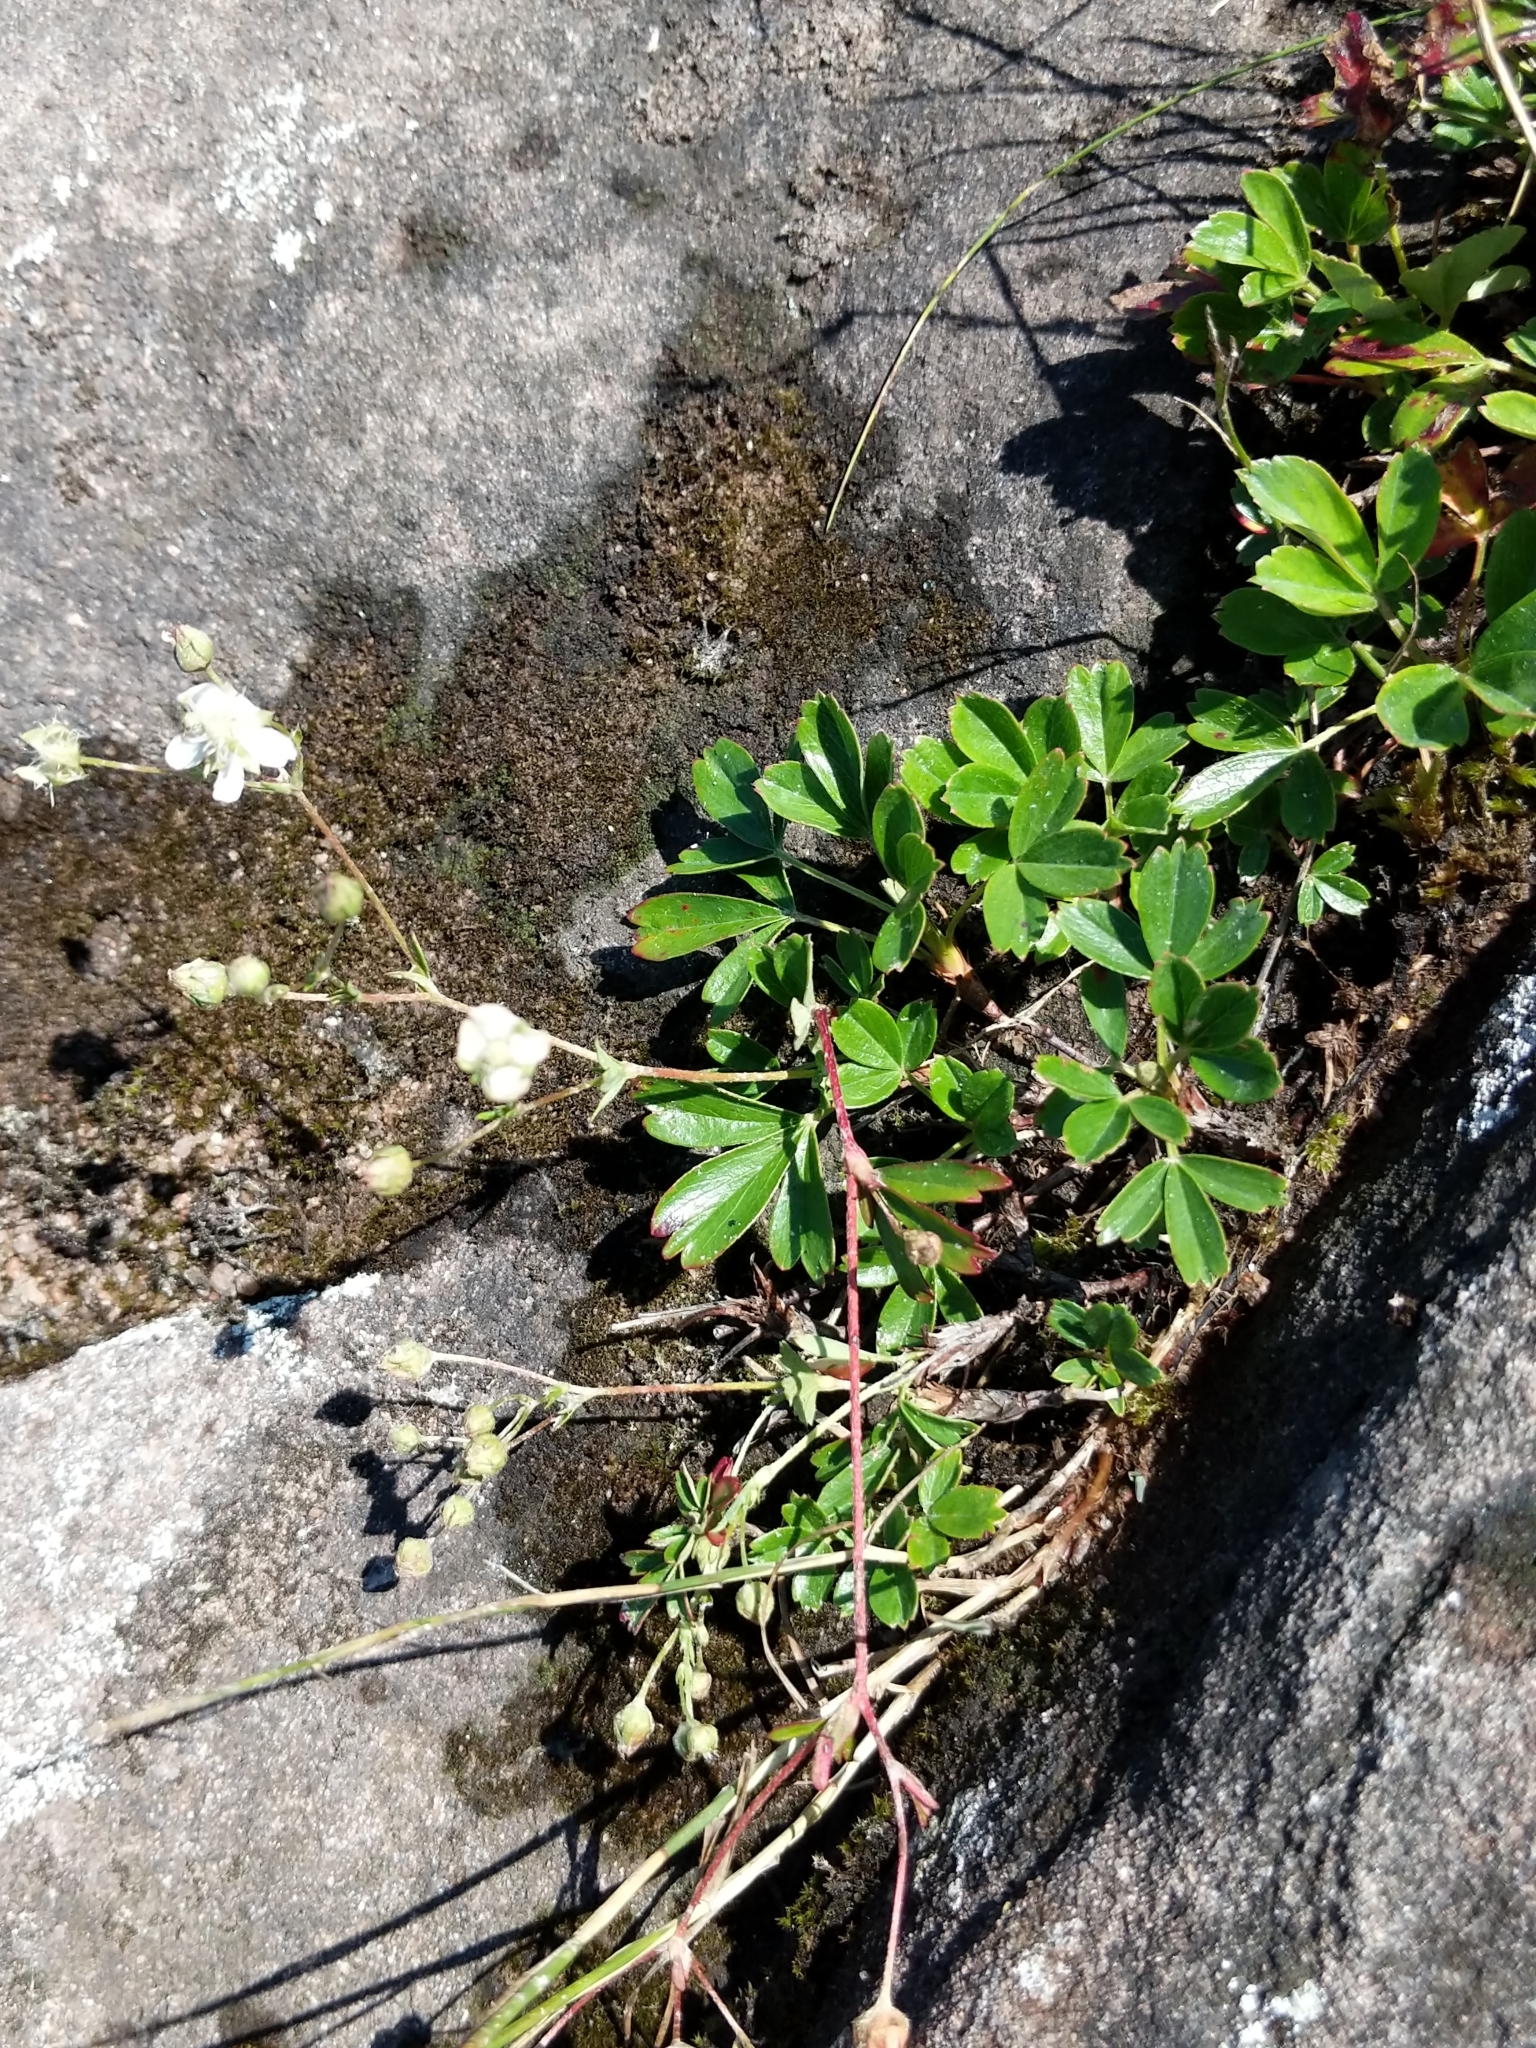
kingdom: Plantae
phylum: Tracheophyta
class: Magnoliopsida
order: Rosales
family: Rosaceae
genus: Sibbaldia
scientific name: Sibbaldia tridentata
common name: Three-toothed cinquefoil
